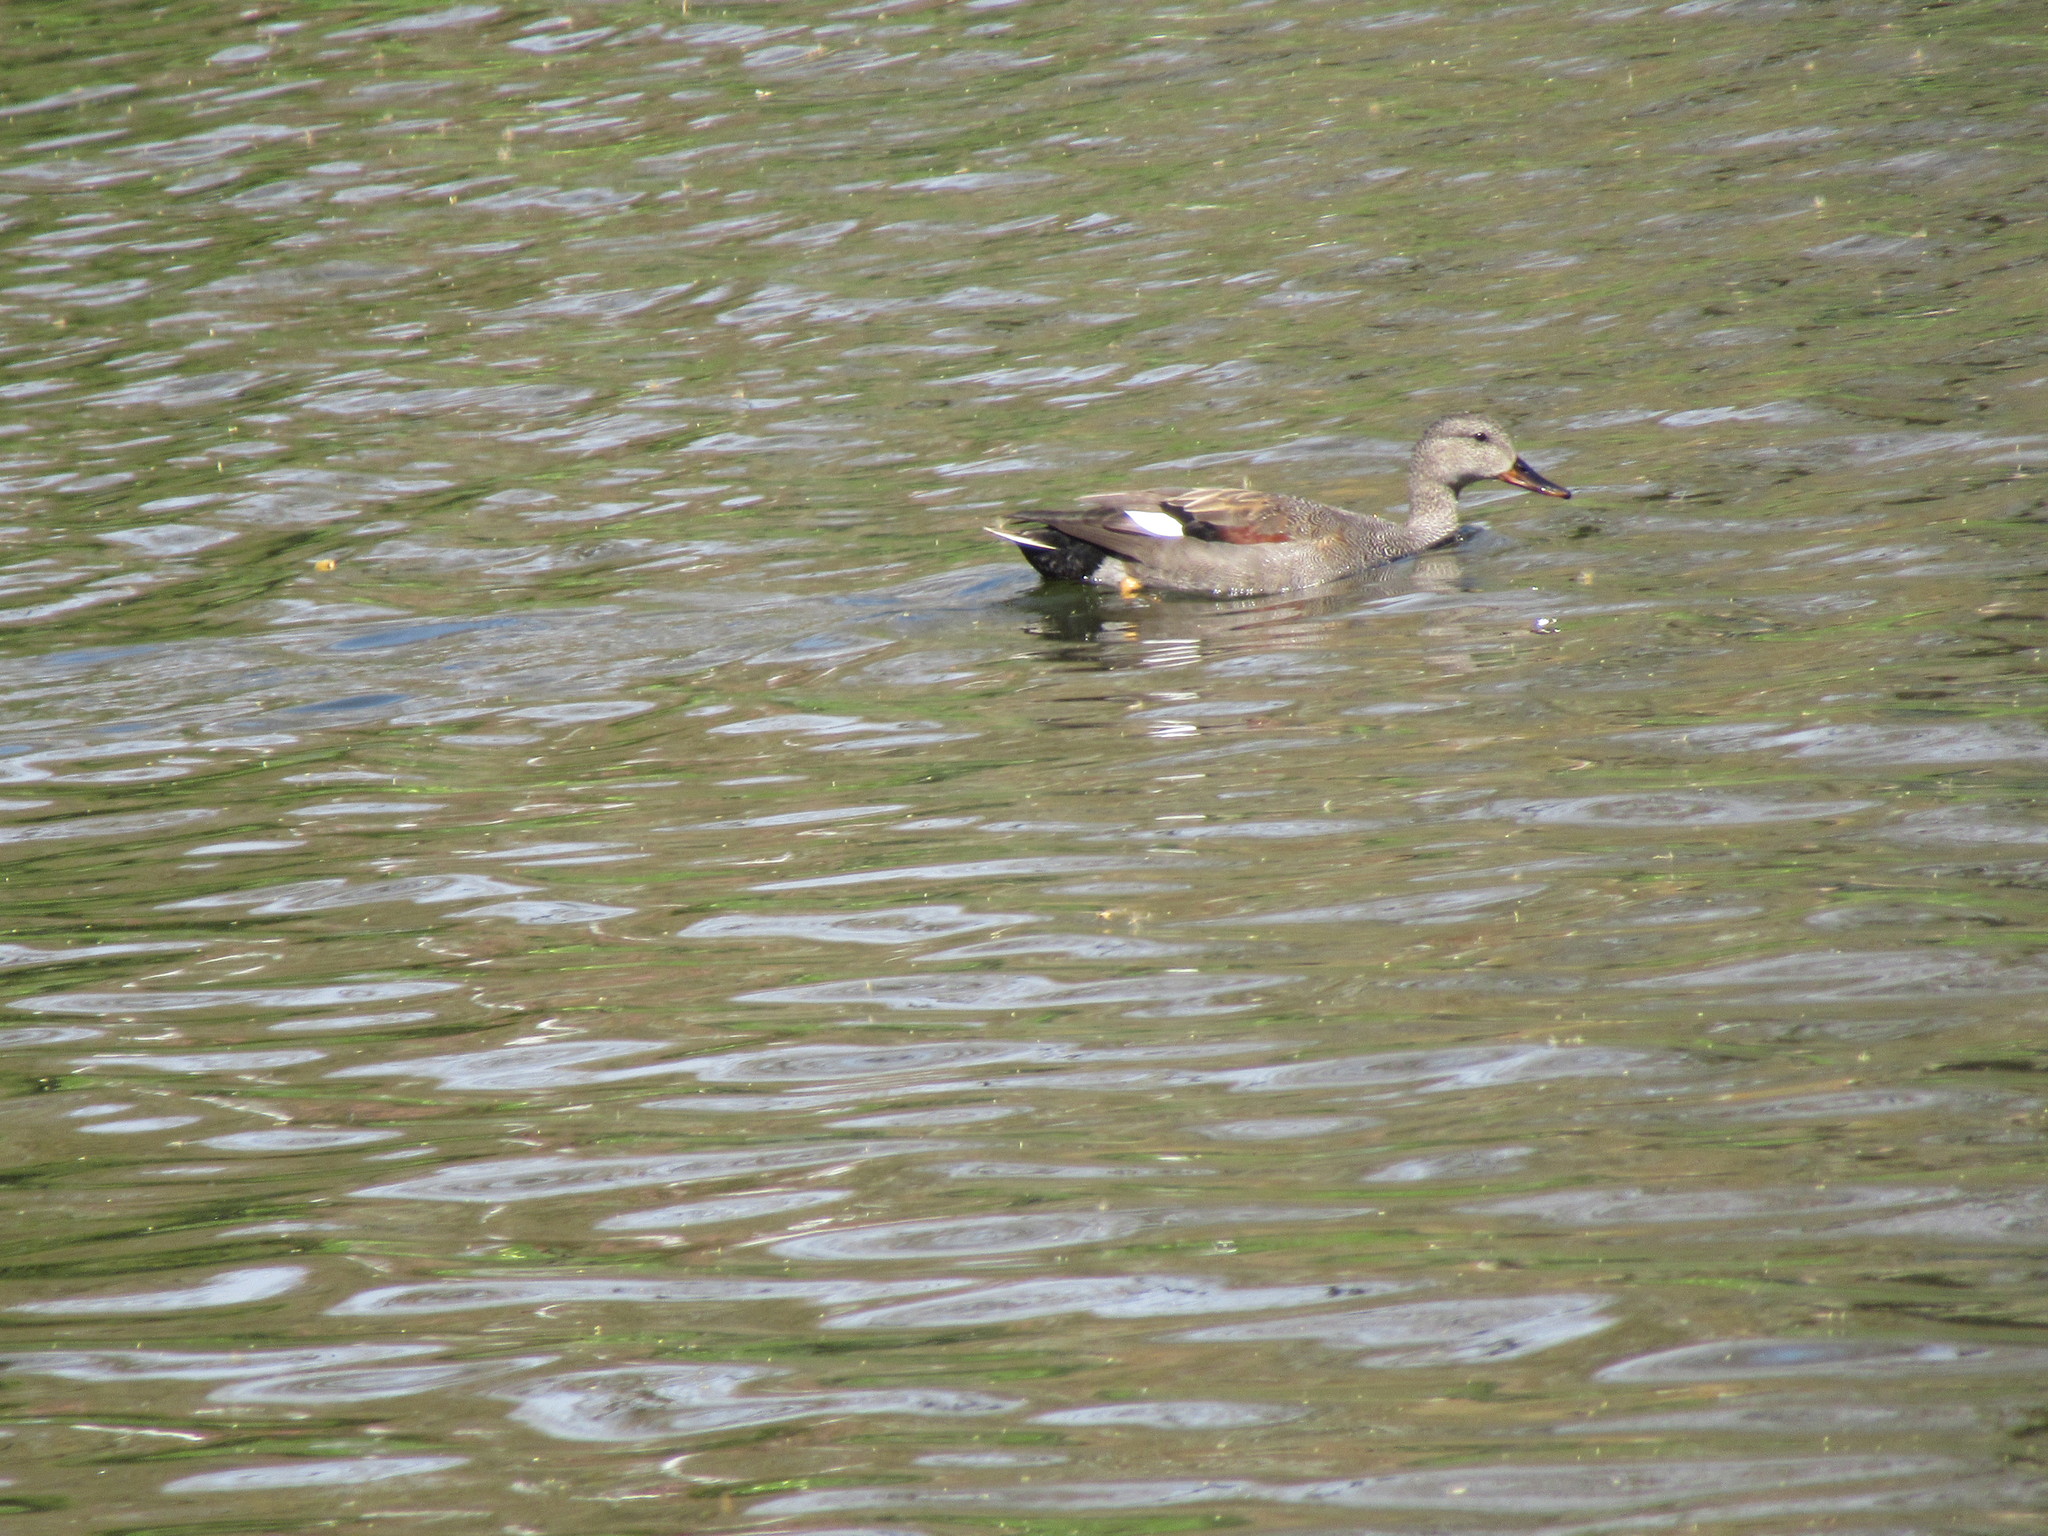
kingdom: Animalia
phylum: Chordata
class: Aves
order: Anseriformes
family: Anatidae
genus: Mareca
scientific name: Mareca strepera
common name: Gadwall
